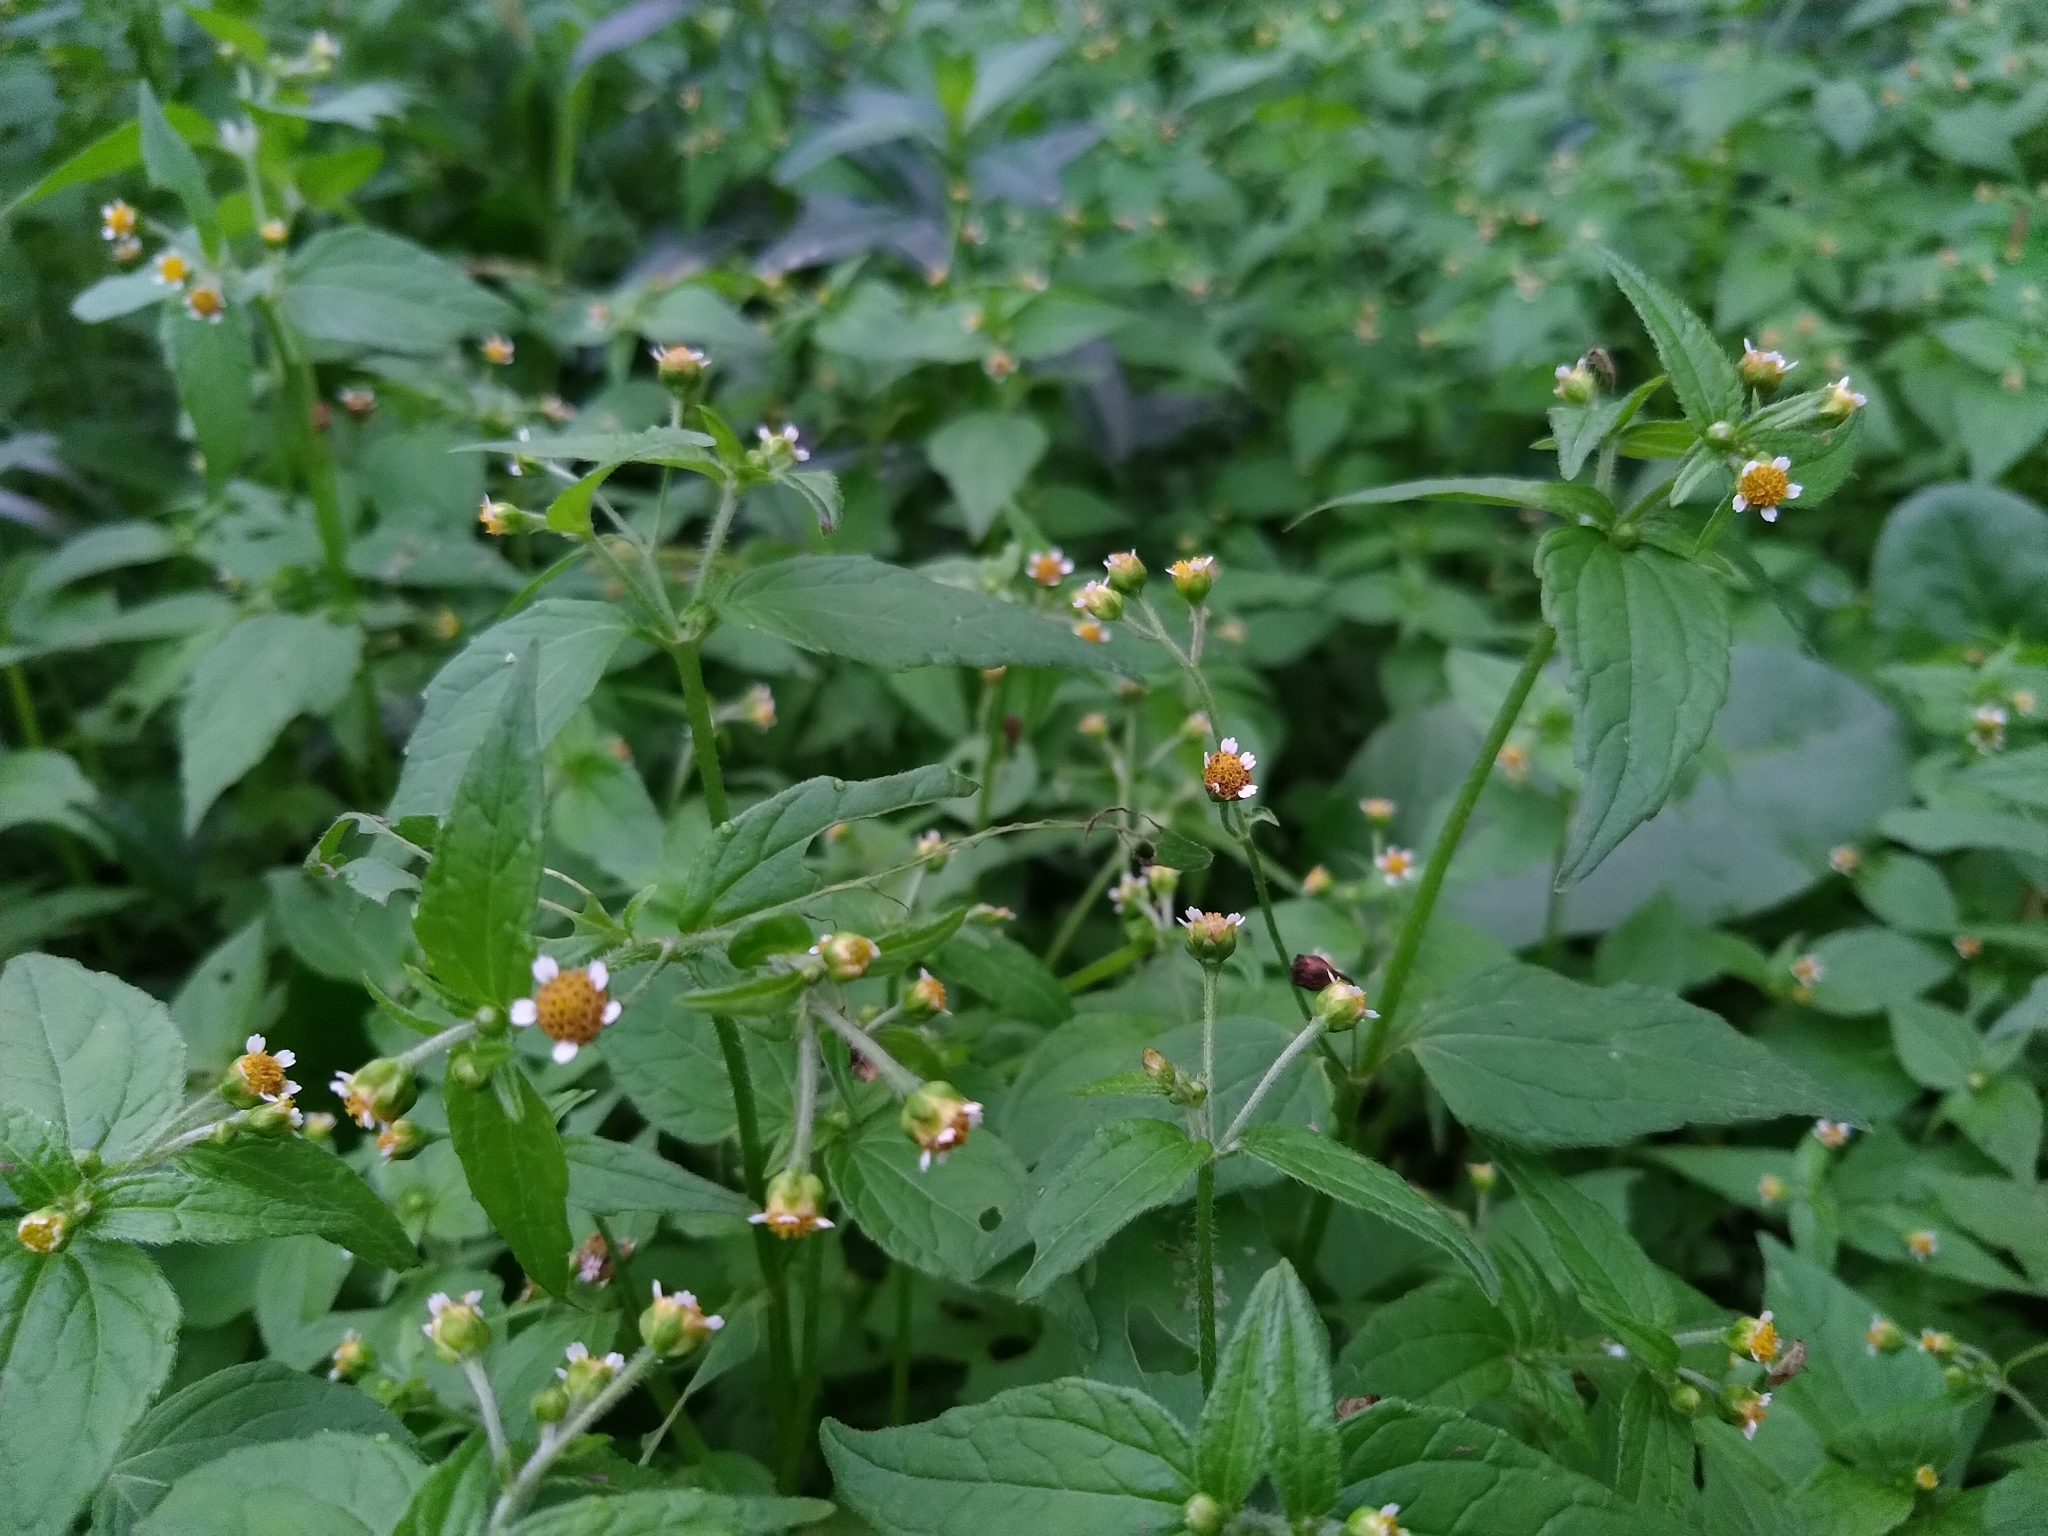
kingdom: Plantae
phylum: Tracheophyta
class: Magnoliopsida
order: Asterales
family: Asteraceae
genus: Galinsoga
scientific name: Galinsoga parviflora
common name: Gallant soldier
